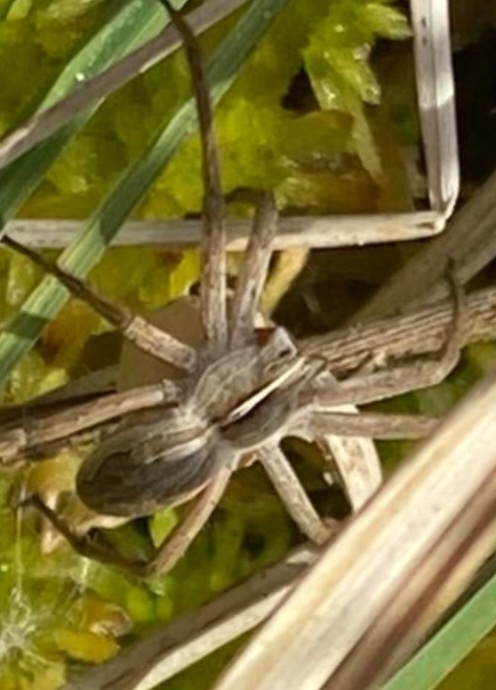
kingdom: Animalia
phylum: Arthropoda
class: Arachnida
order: Araneae
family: Pisauridae
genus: Pisaura
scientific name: Pisaura mirabilis
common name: Tent spider
